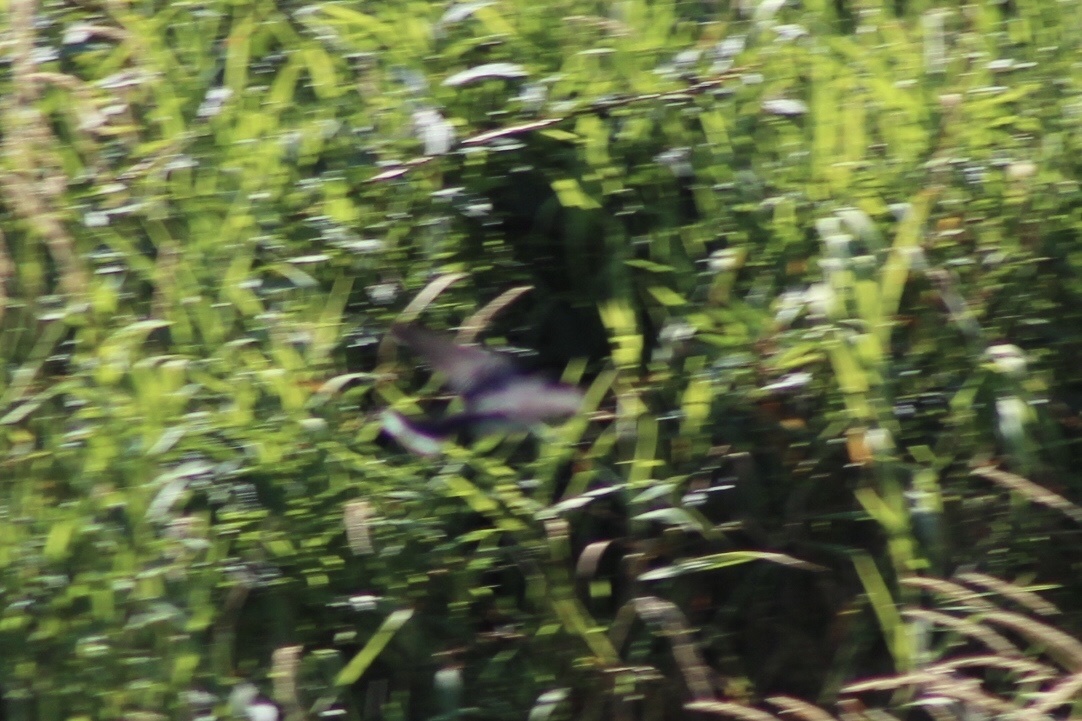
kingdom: Animalia
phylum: Chordata
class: Aves
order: Passeriformes
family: Tyrannidae
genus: Tyrannus
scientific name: Tyrannus tyrannus
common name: Eastern kingbird
